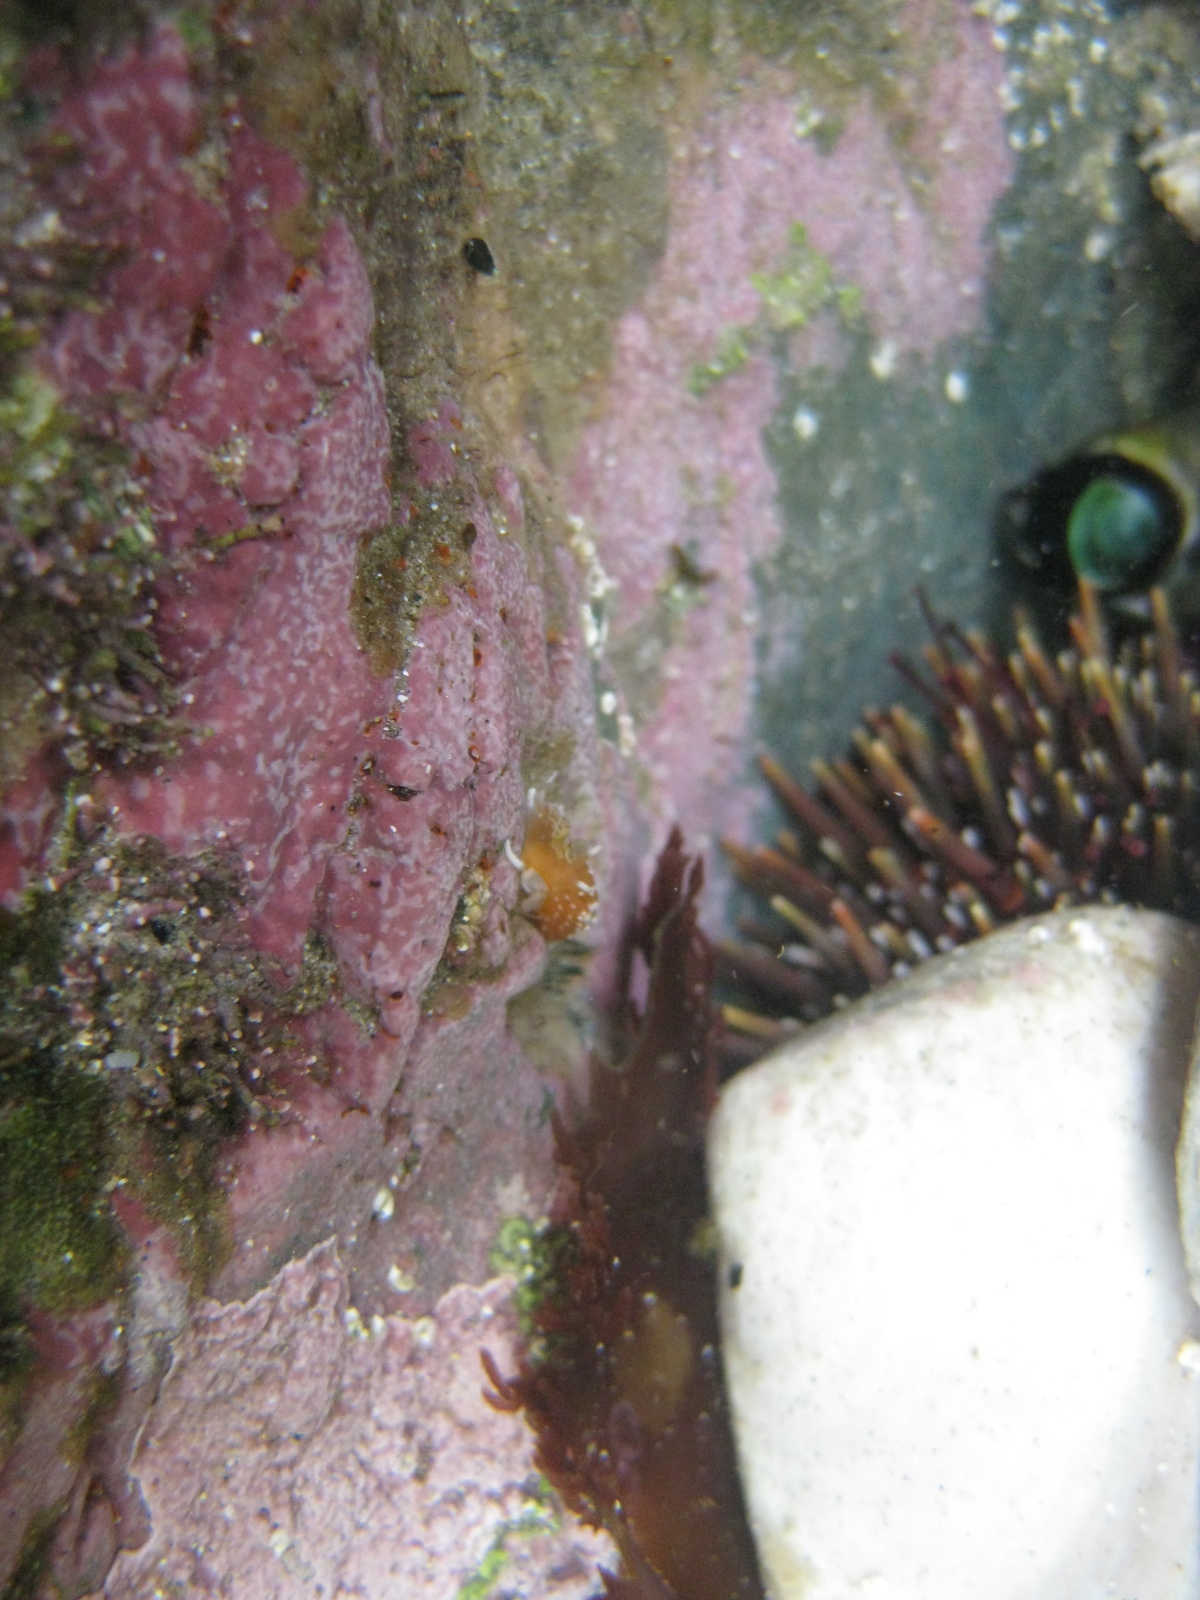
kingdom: Animalia
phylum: Mollusca
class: Gastropoda
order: Nudibranchia
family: Facelinidae
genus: Phidiana
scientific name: Phidiana milleri
